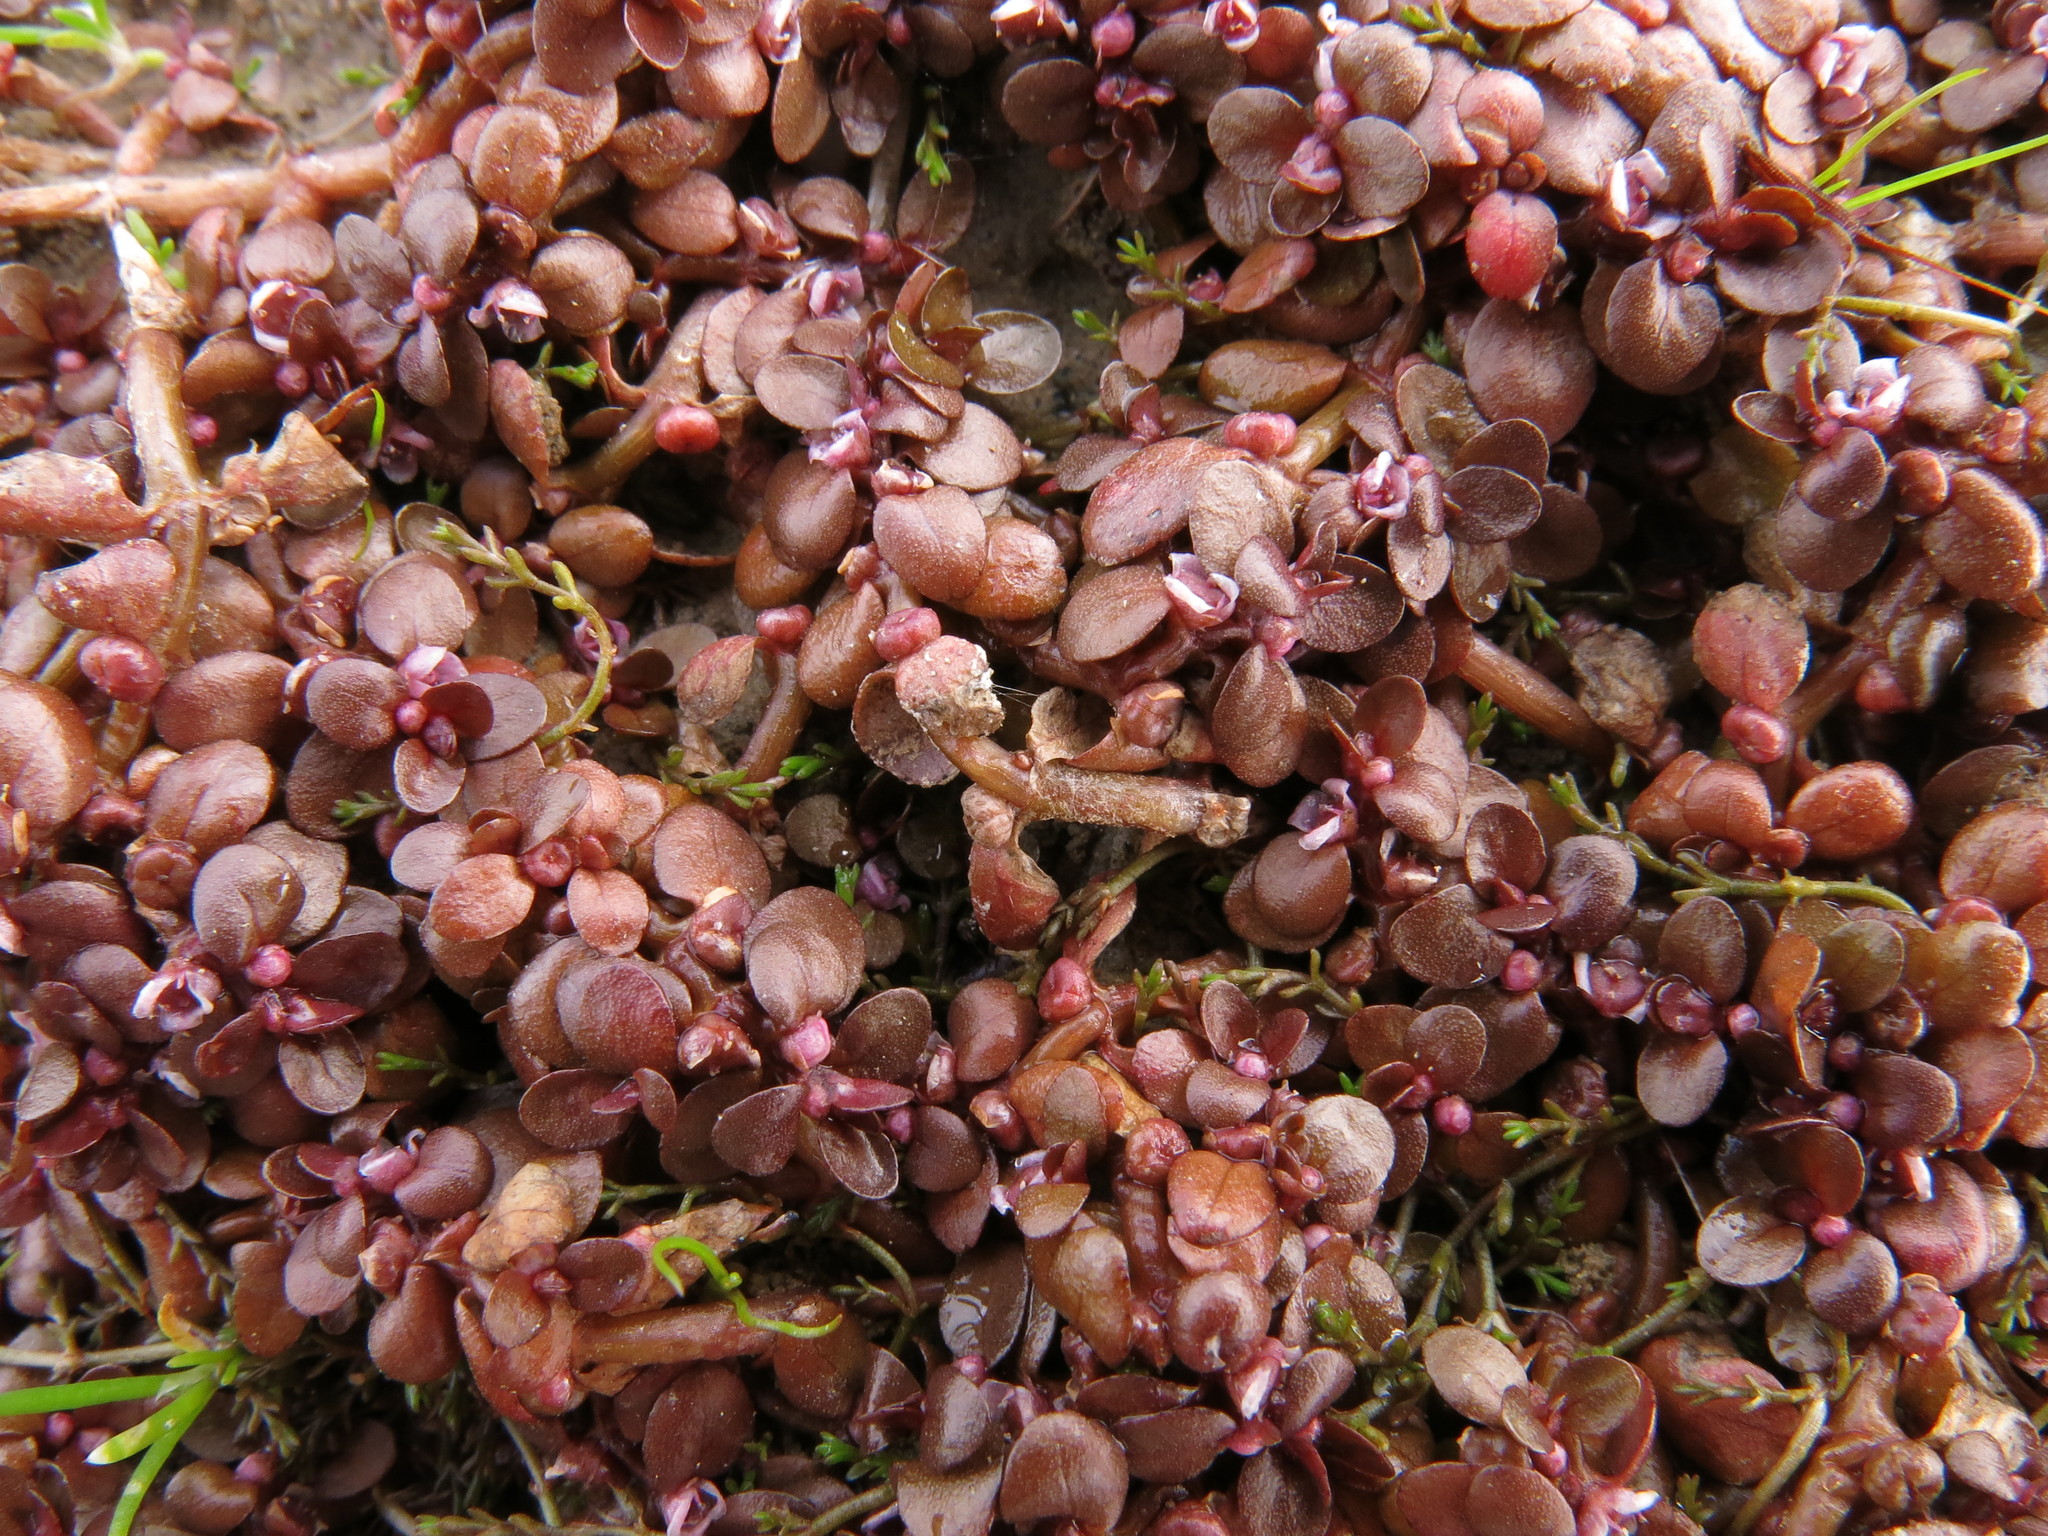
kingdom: Plantae
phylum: Tracheophyta
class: Magnoliopsida
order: Malpighiales
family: Elatinaceae
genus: Elatine
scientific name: Elatine gratioloides
